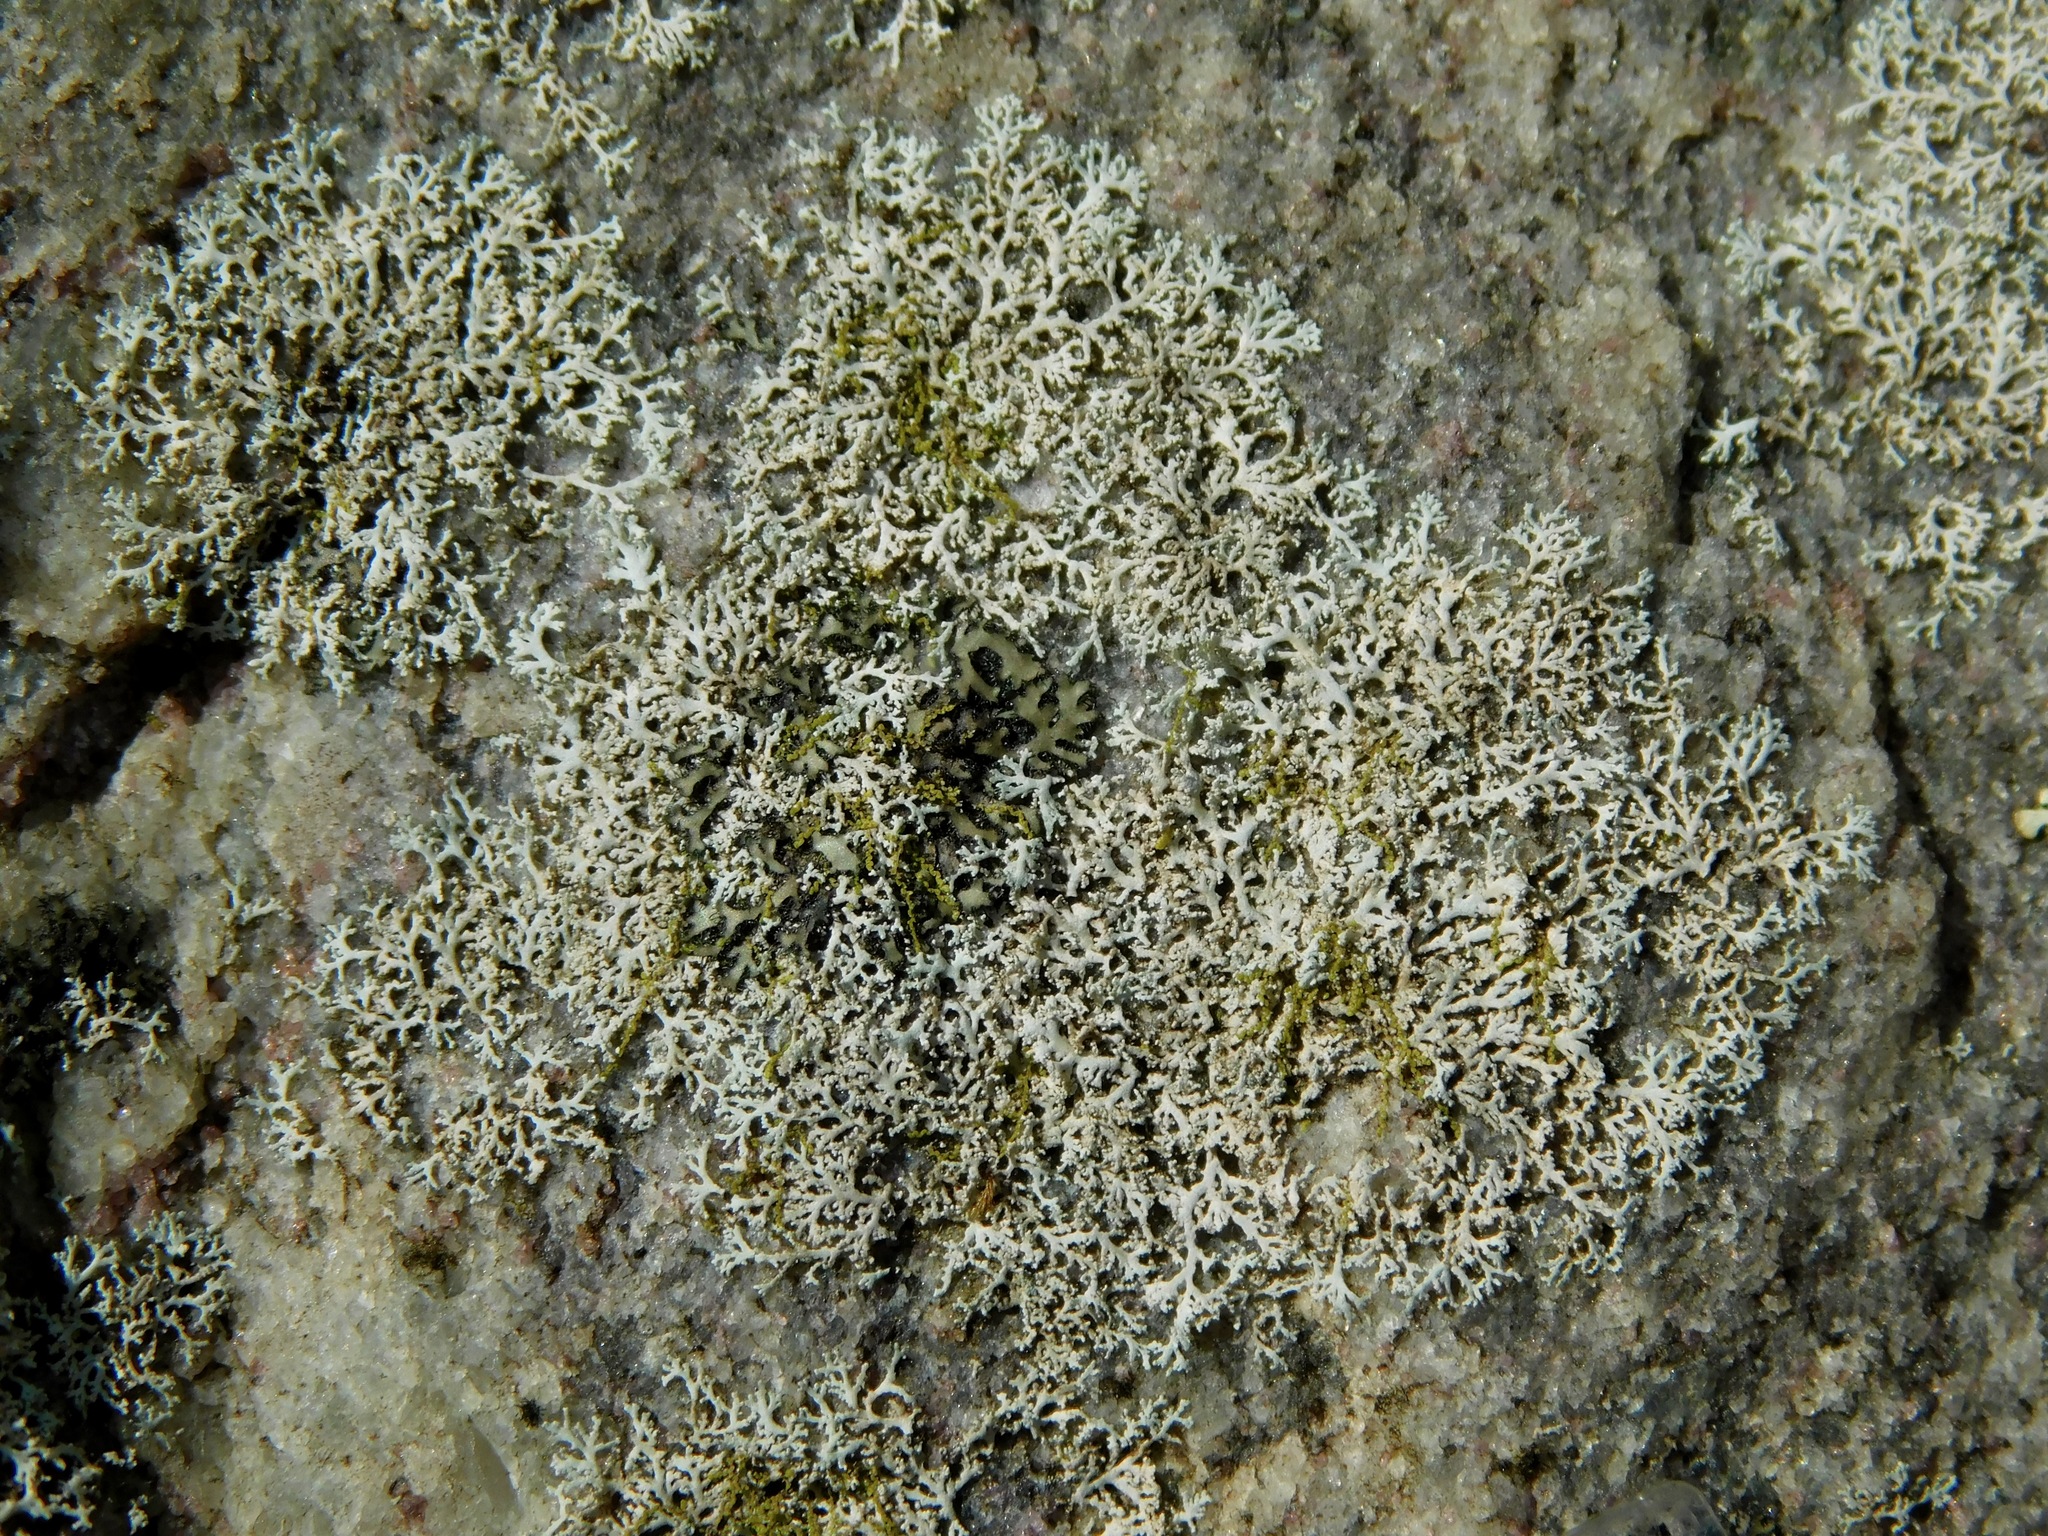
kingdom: Fungi
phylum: Ascomycota
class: Lecanoromycetes
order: Caliciales
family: Physciaceae
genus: Physcia
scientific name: Physcia subtilis
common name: Slender rosette lichen
